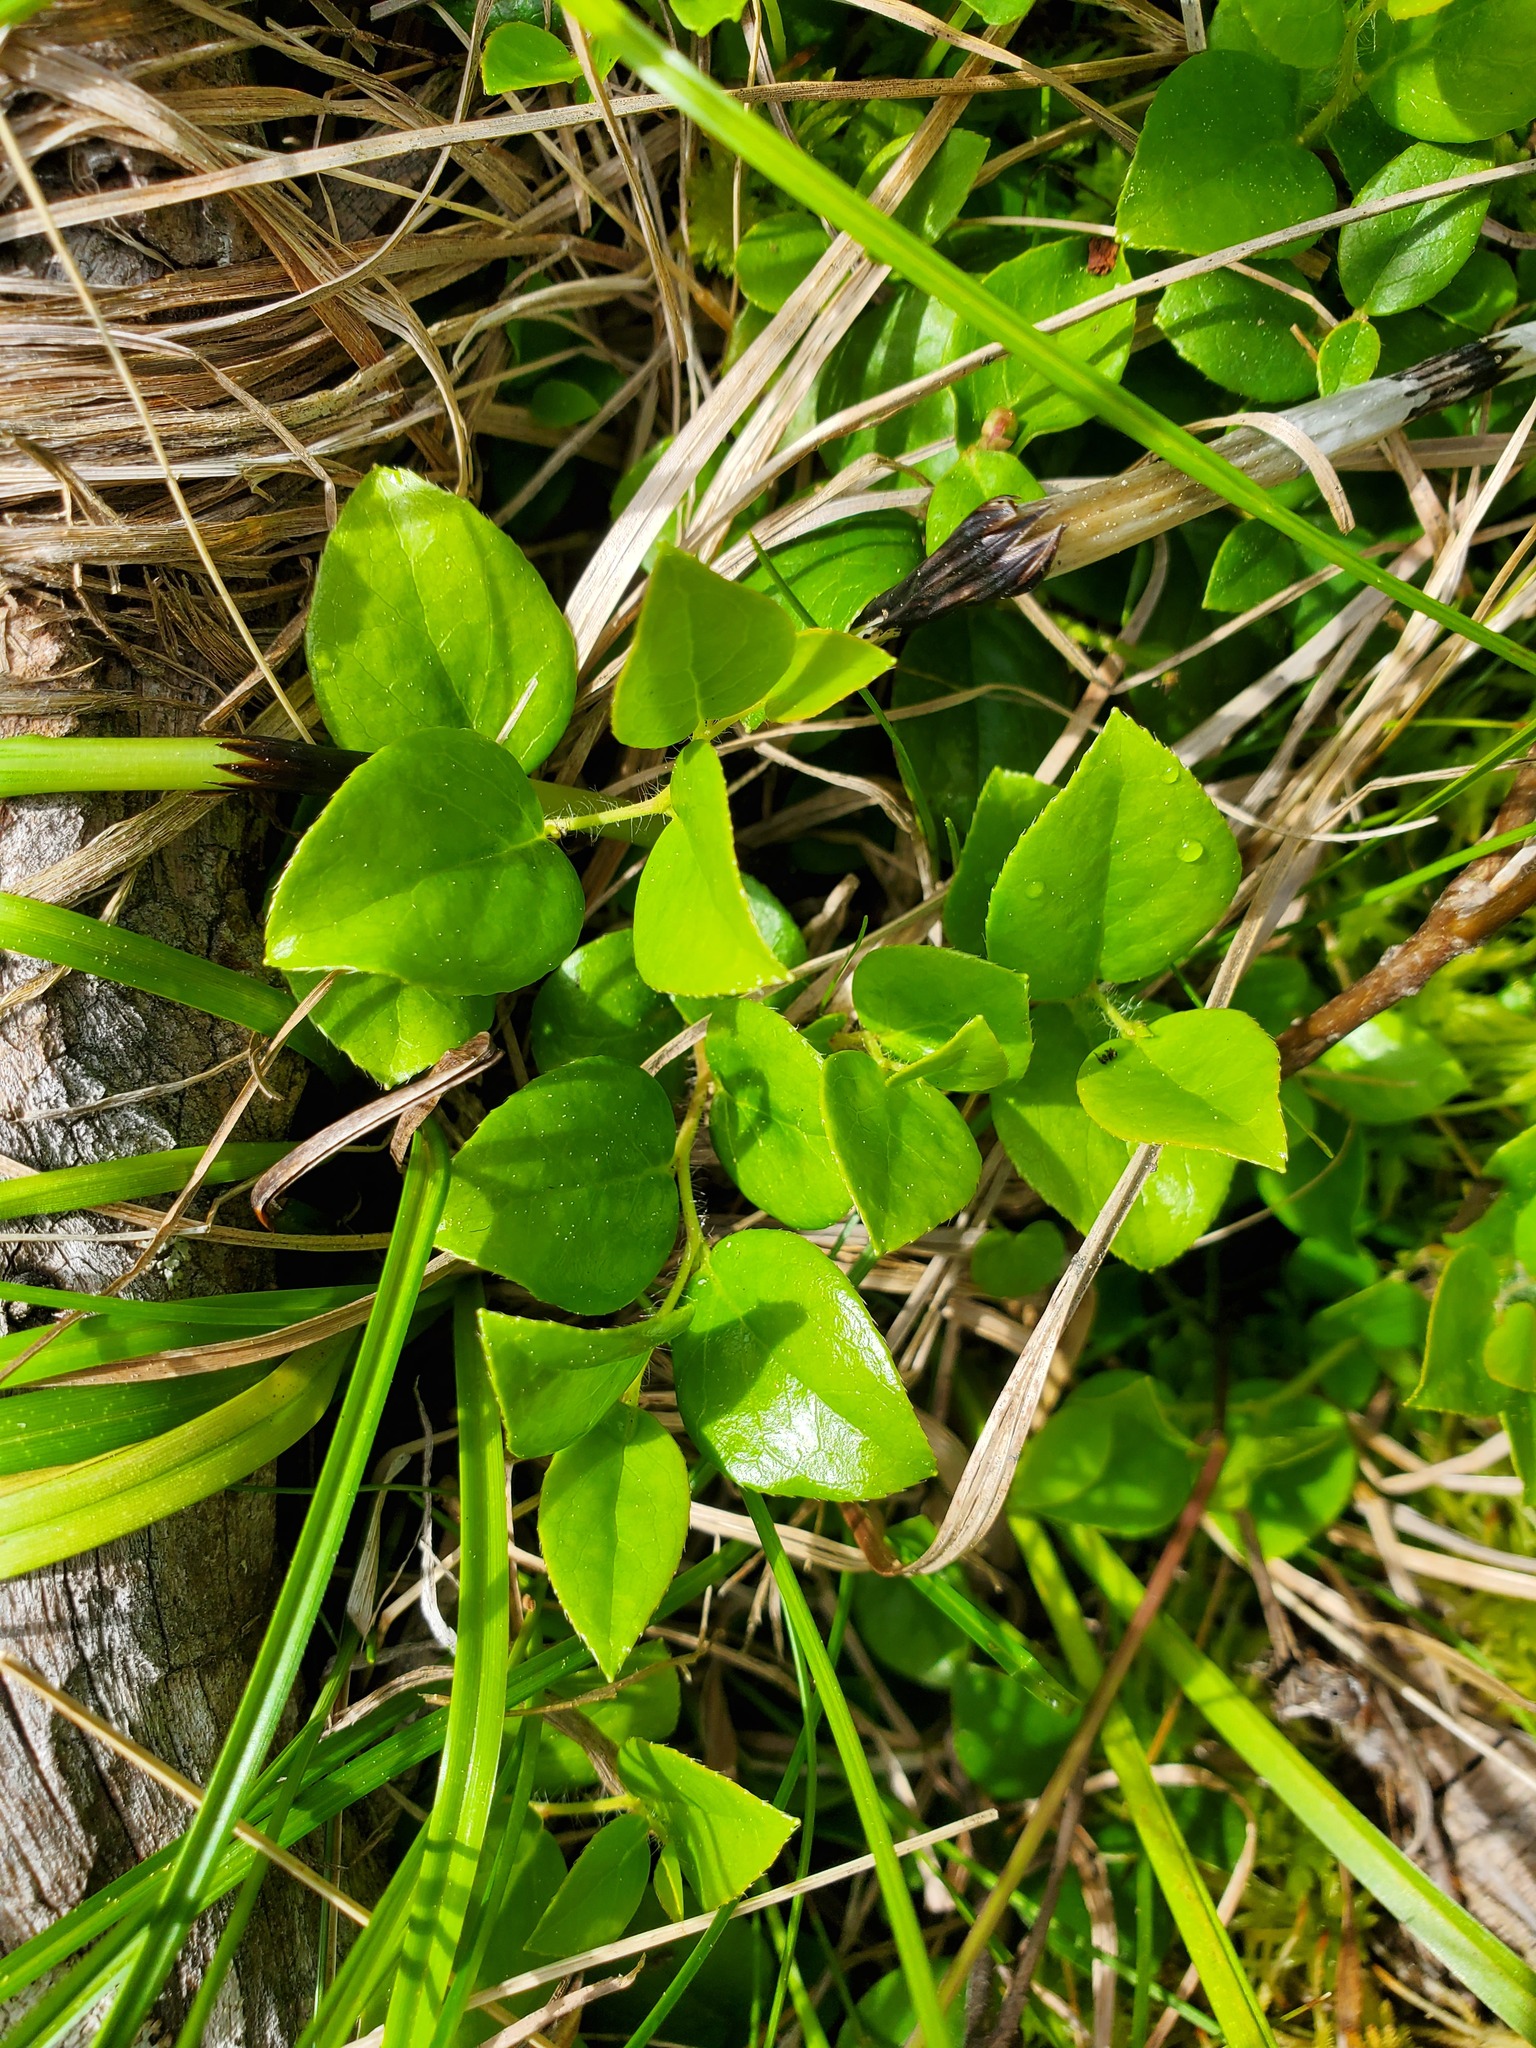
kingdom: Plantae
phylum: Tracheophyta
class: Magnoliopsida
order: Ericales
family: Ericaceae
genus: Gaultheria
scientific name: Gaultheria ovatifolia
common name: Oregon wintergreen
